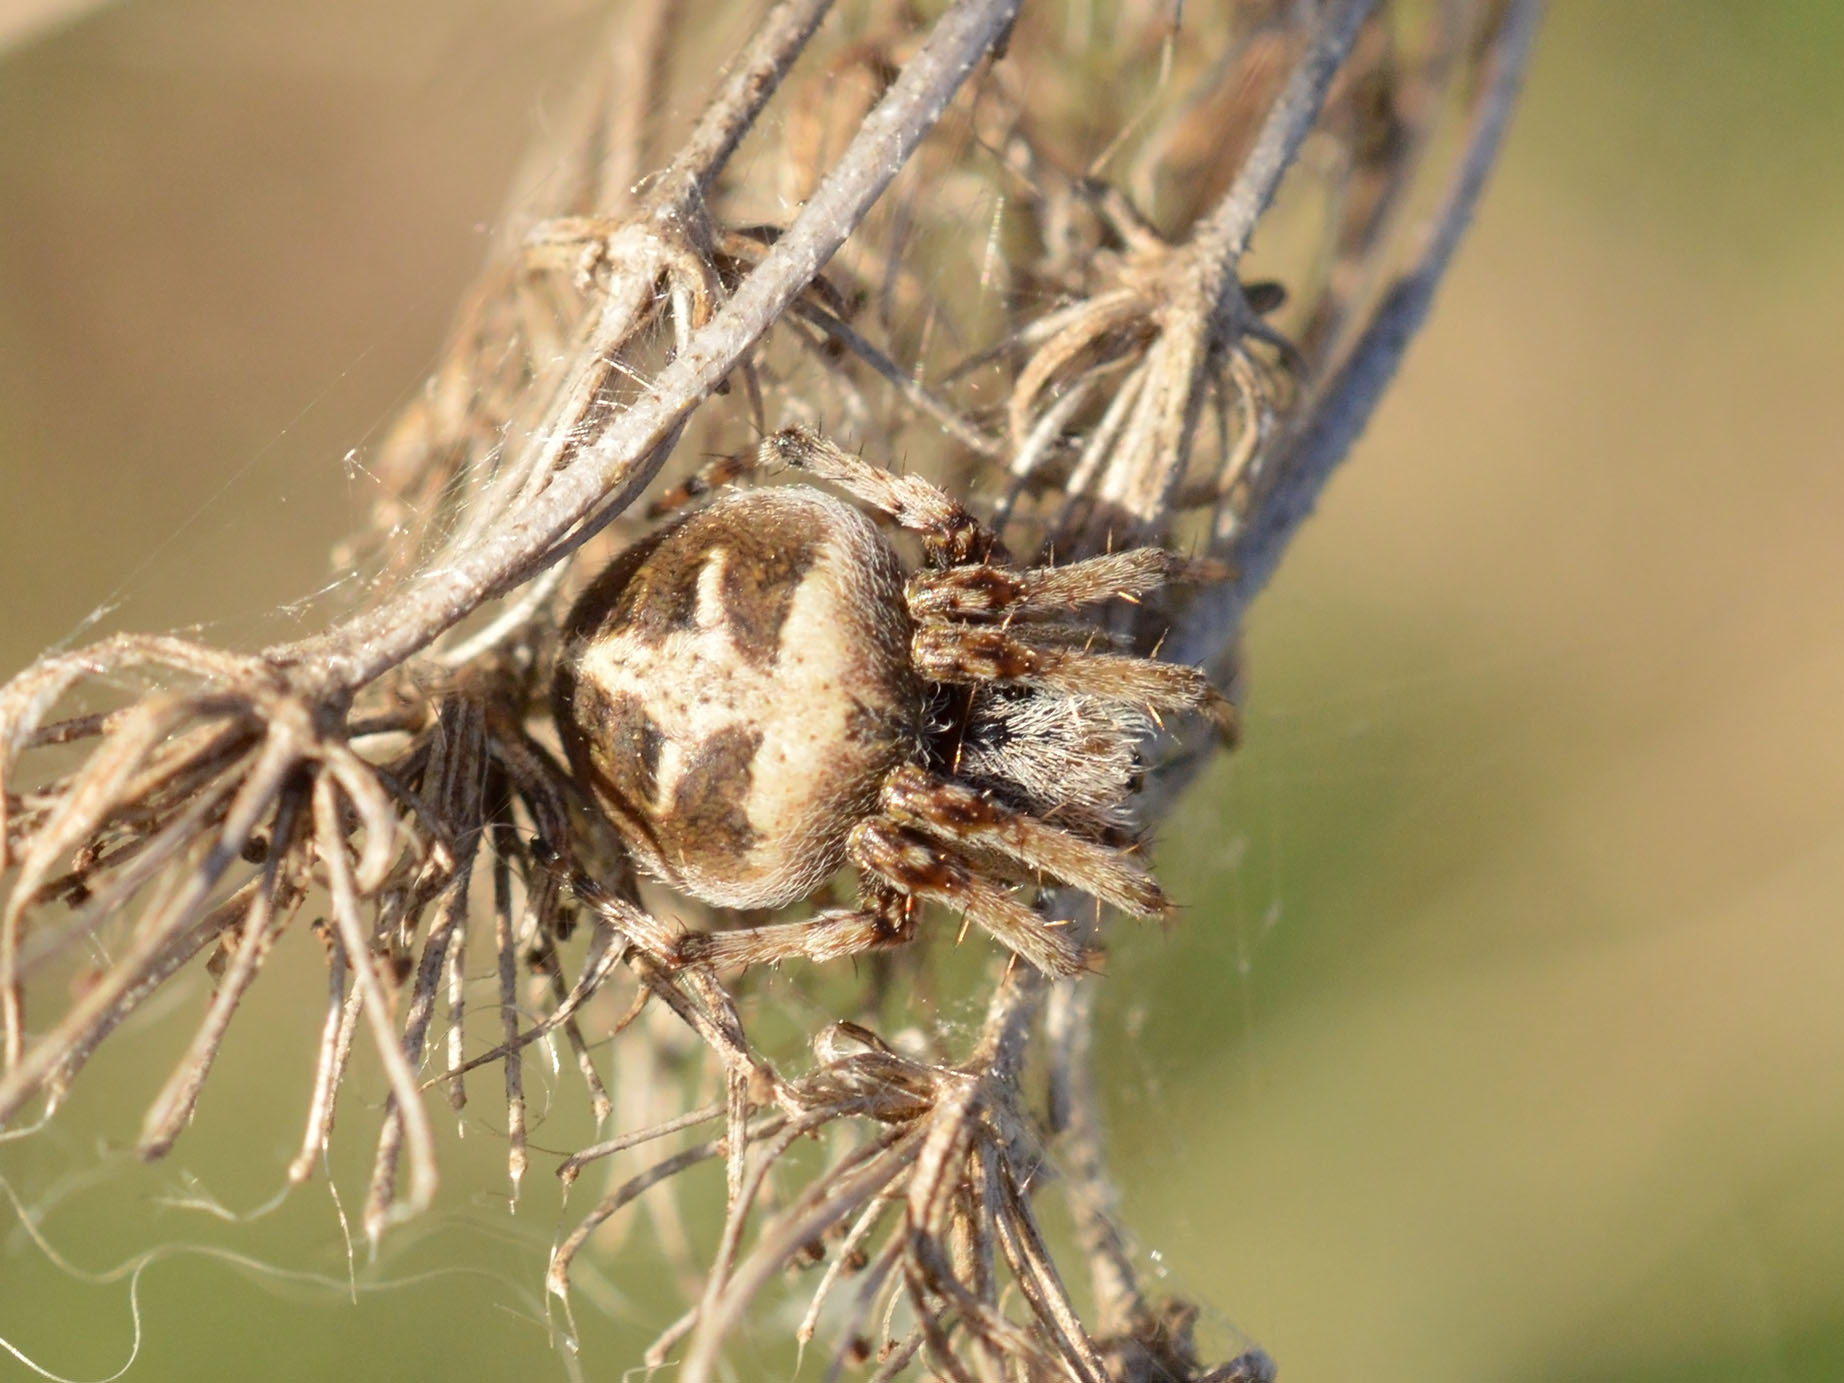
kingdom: Animalia
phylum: Arthropoda
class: Arachnida
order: Araneae
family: Araneidae
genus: Agalenatea
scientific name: Agalenatea redii
